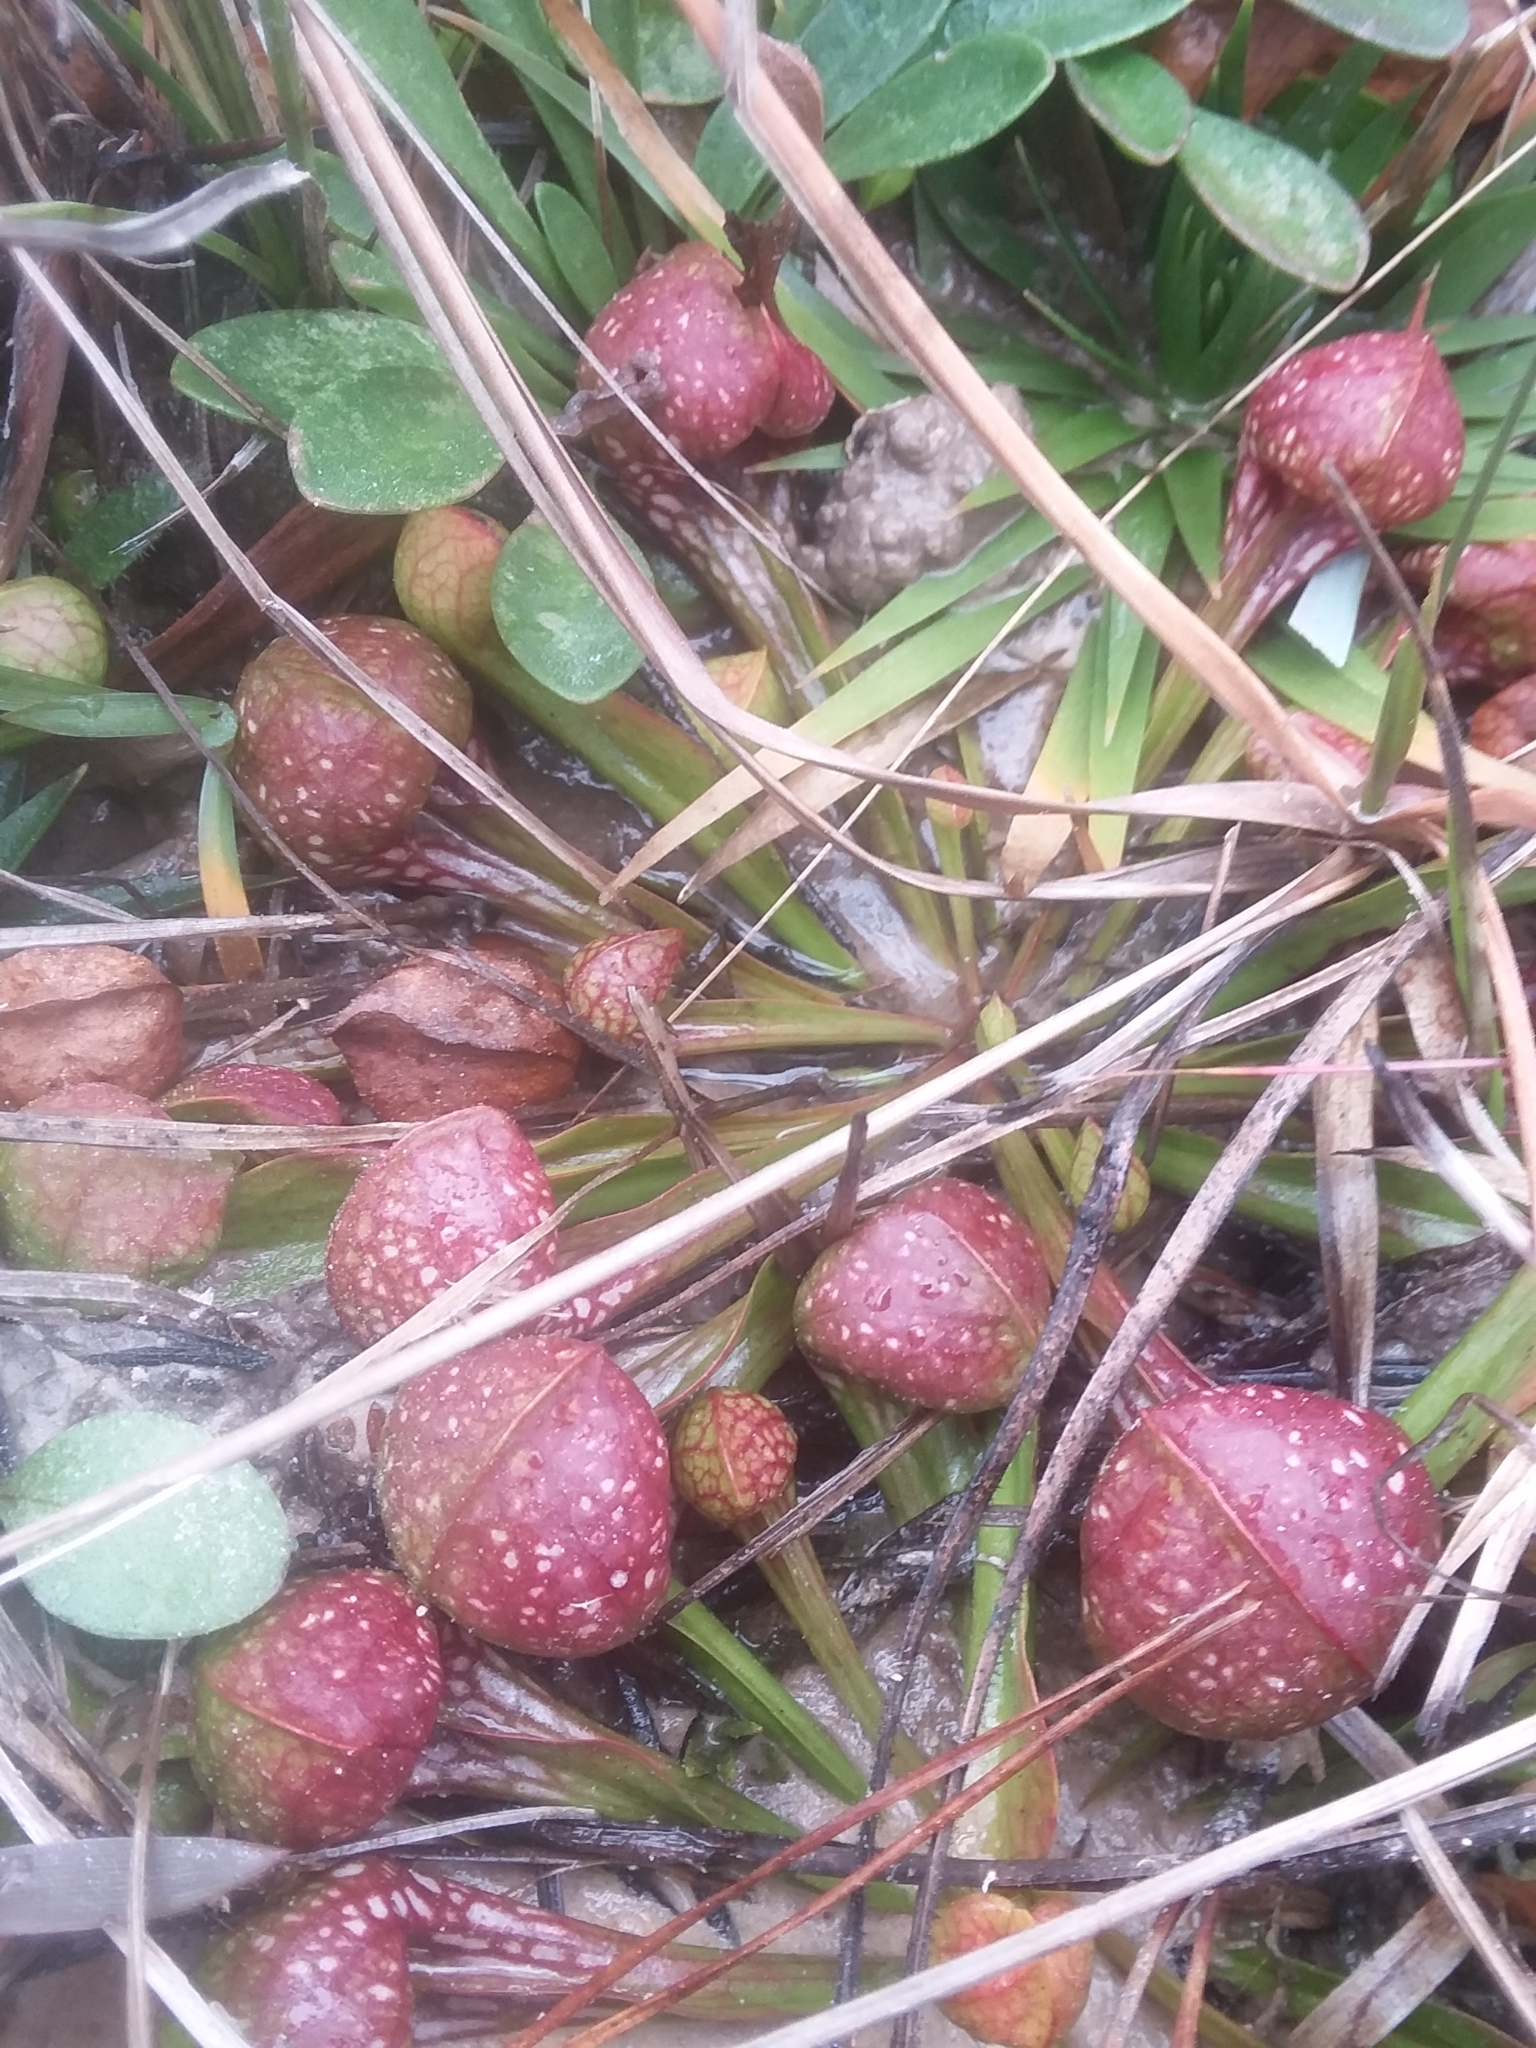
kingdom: Plantae
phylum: Tracheophyta
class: Magnoliopsida
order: Ericales
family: Sarraceniaceae
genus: Sarracenia
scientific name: Sarracenia psittacina
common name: Parrot pitcherplant
